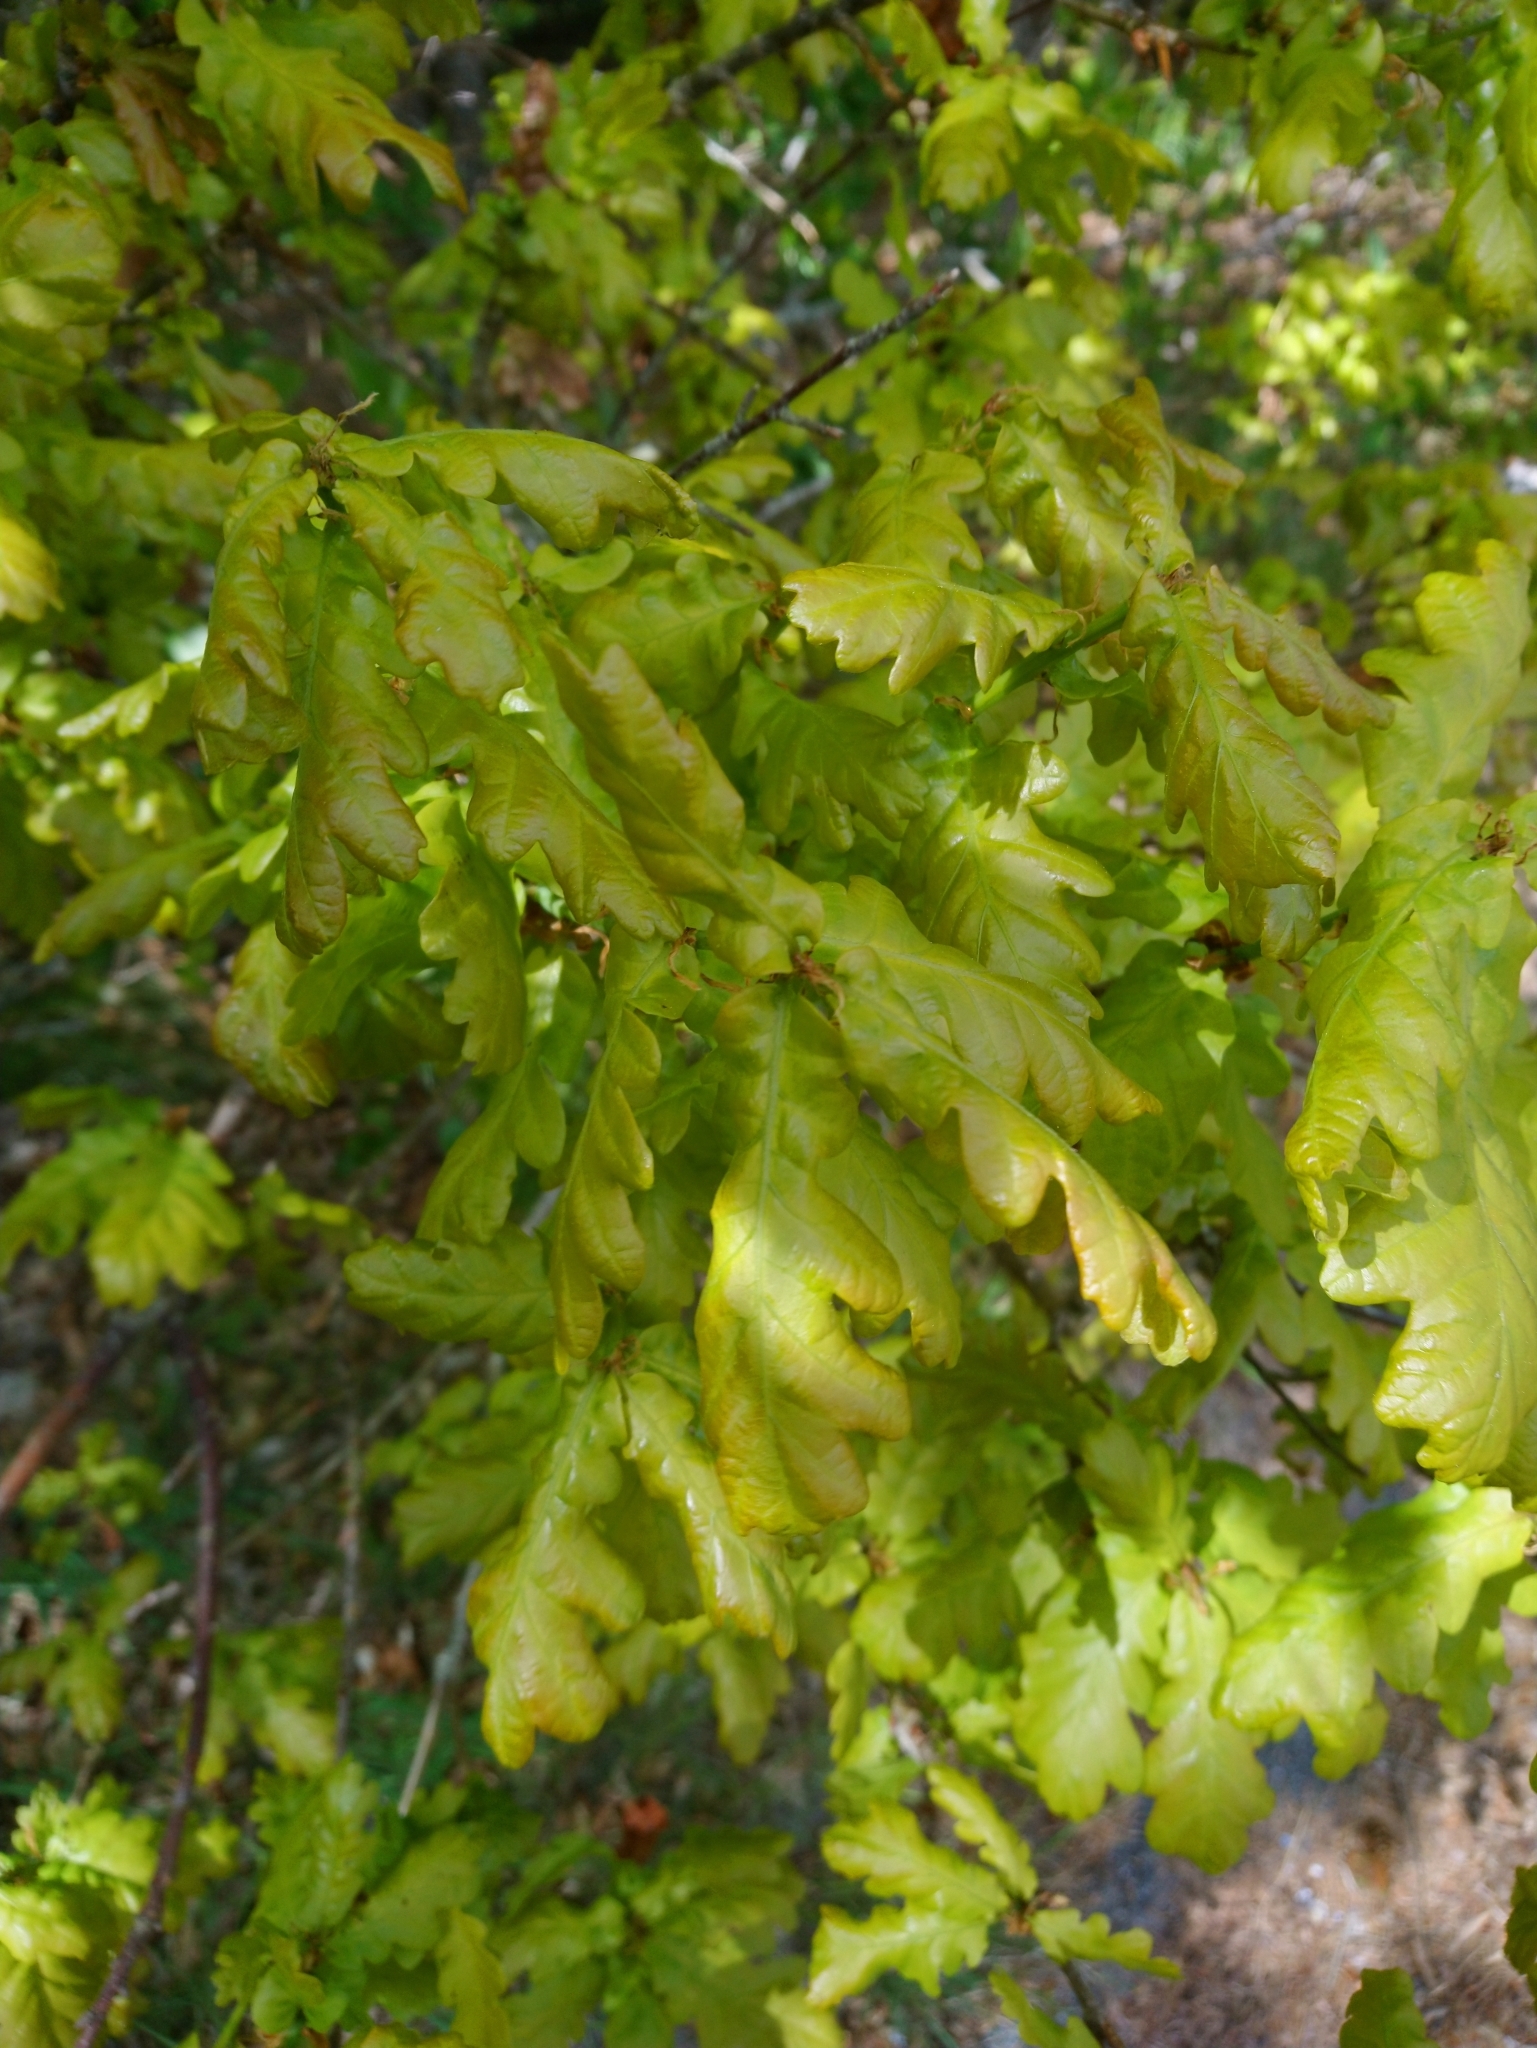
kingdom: Plantae
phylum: Tracheophyta
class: Magnoliopsida
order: Fagales
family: Fagaceae
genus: Quercus
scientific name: Quercus robur
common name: Pedunculate oak
